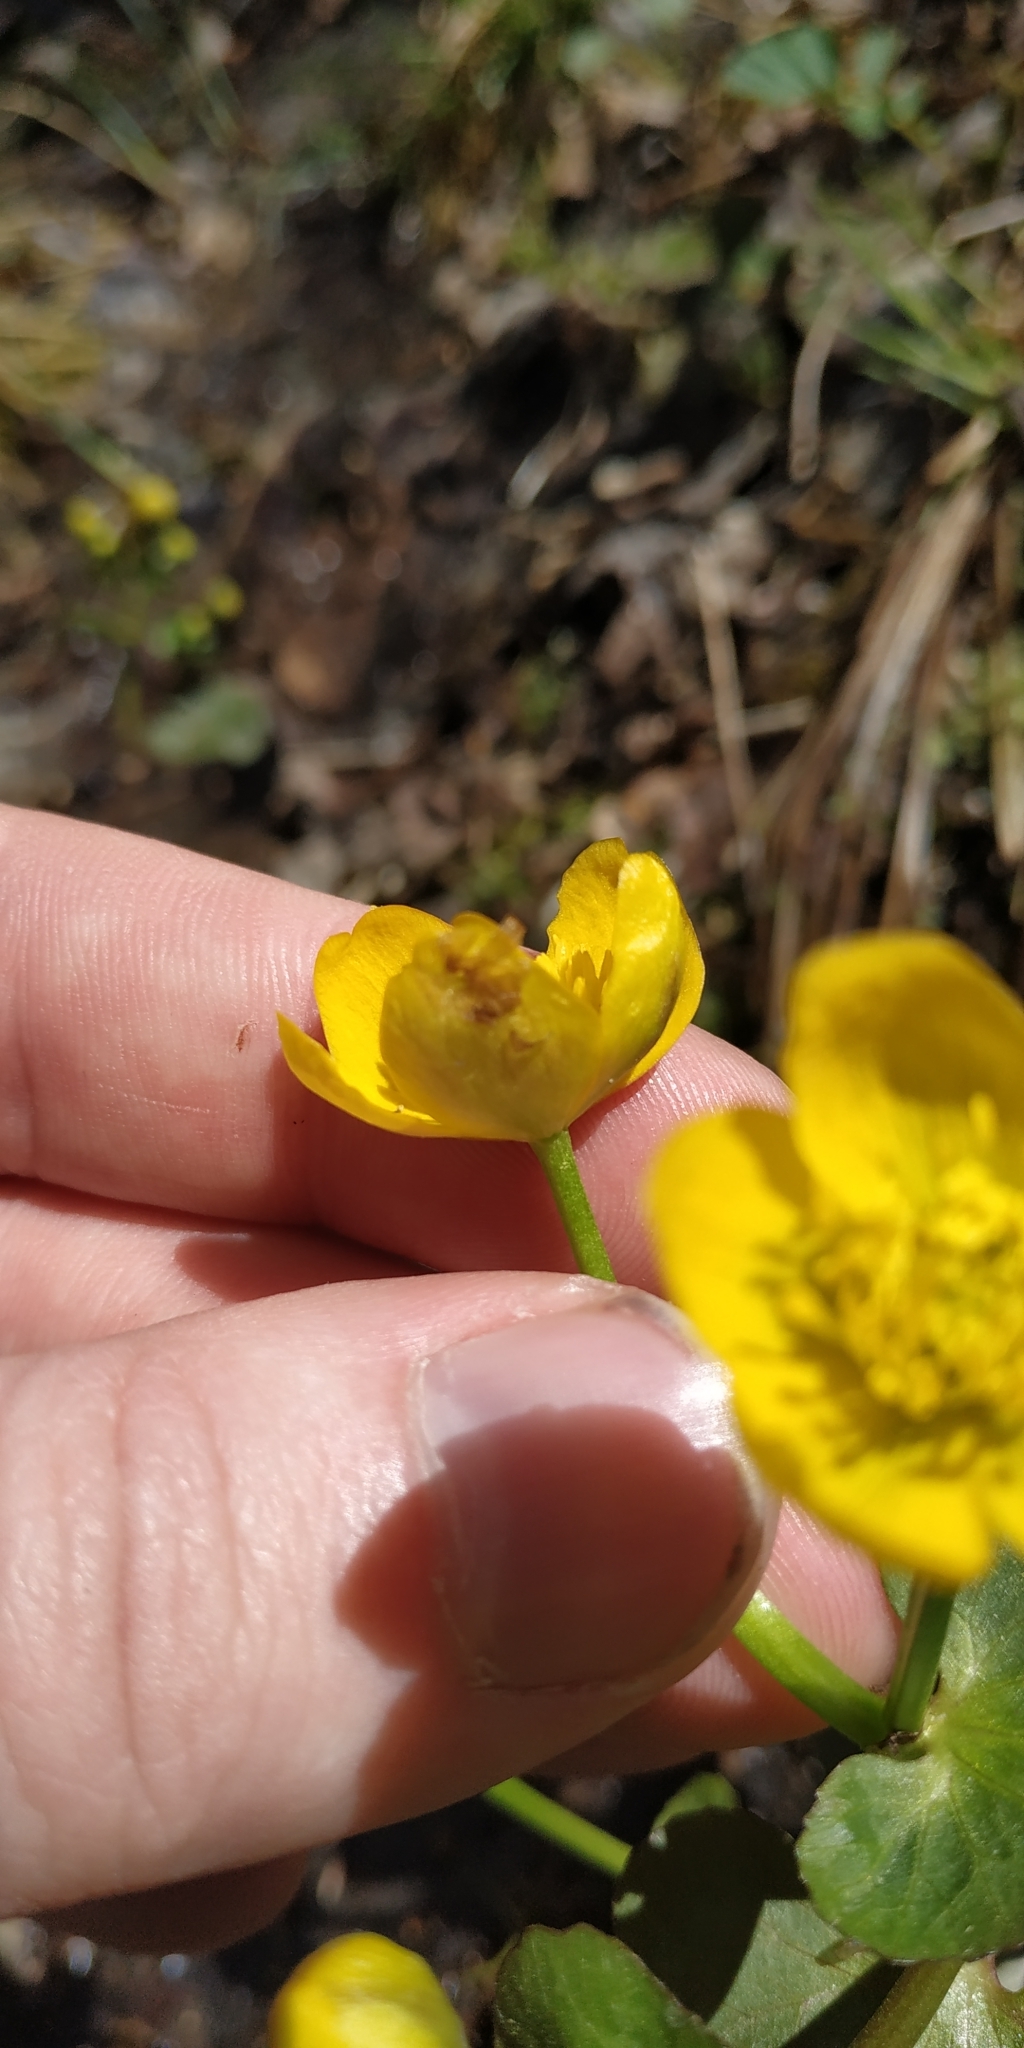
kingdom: Plantae
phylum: Tracheophyta
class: Magnoliopsida
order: Ranunculales
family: Ranunculaceae
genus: Caltha
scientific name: Caltha palustris
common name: Marsh marigold
